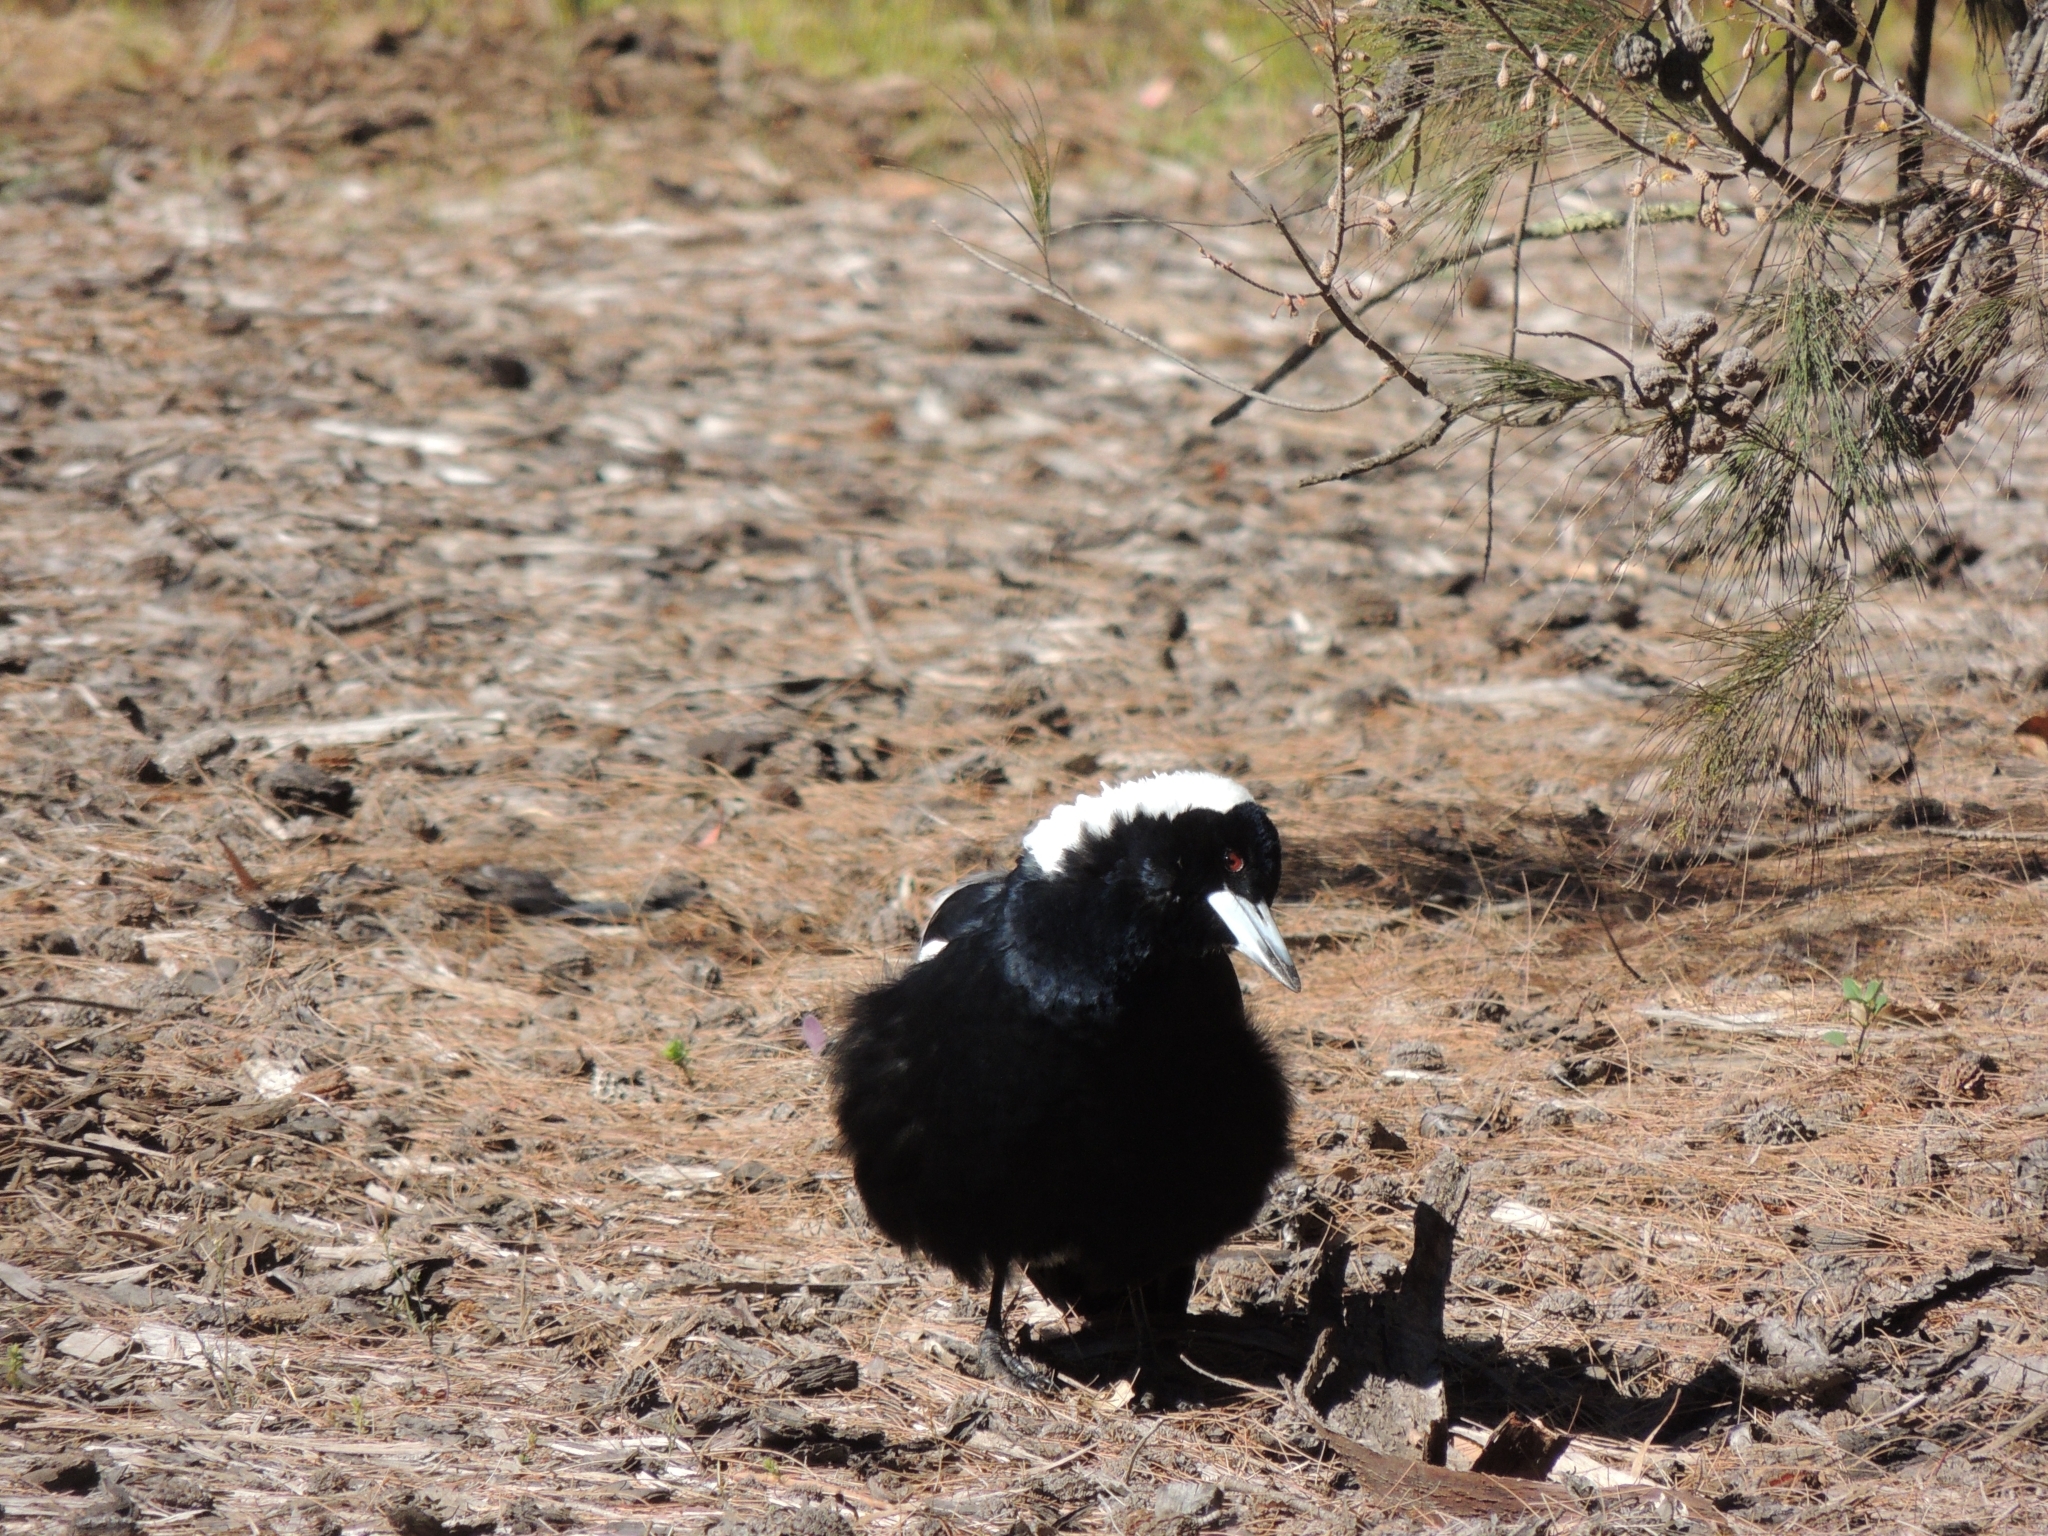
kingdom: Animalia
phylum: Chordata
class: Aves
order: Passeriformes
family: Cracticidae
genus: Gymnorhina
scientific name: Gymnorhina tibicen
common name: Australian magpie
